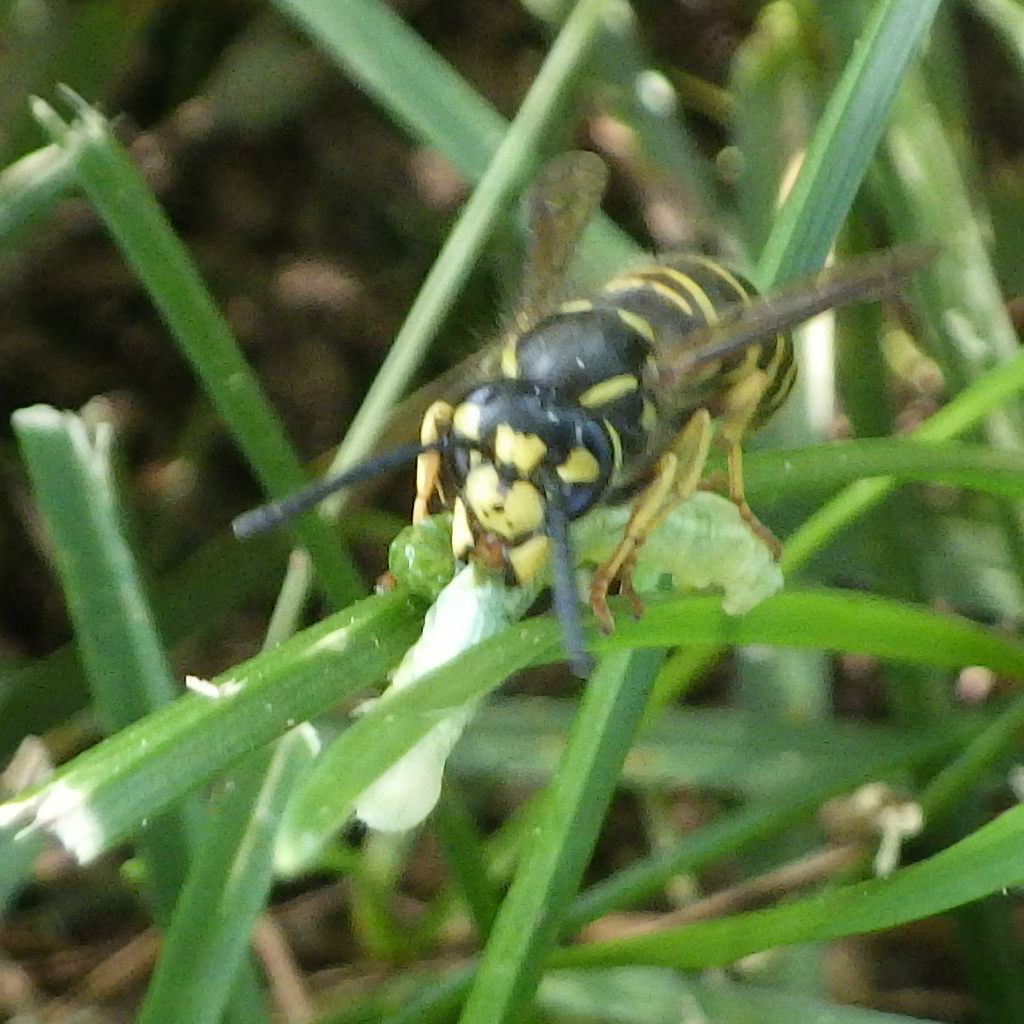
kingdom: Animalia
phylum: Arthropoda
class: Insecta
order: Hymenoptera
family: Vespidae
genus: Vespula
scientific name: Vespula maculifrons
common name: Eastern yellowjacket
